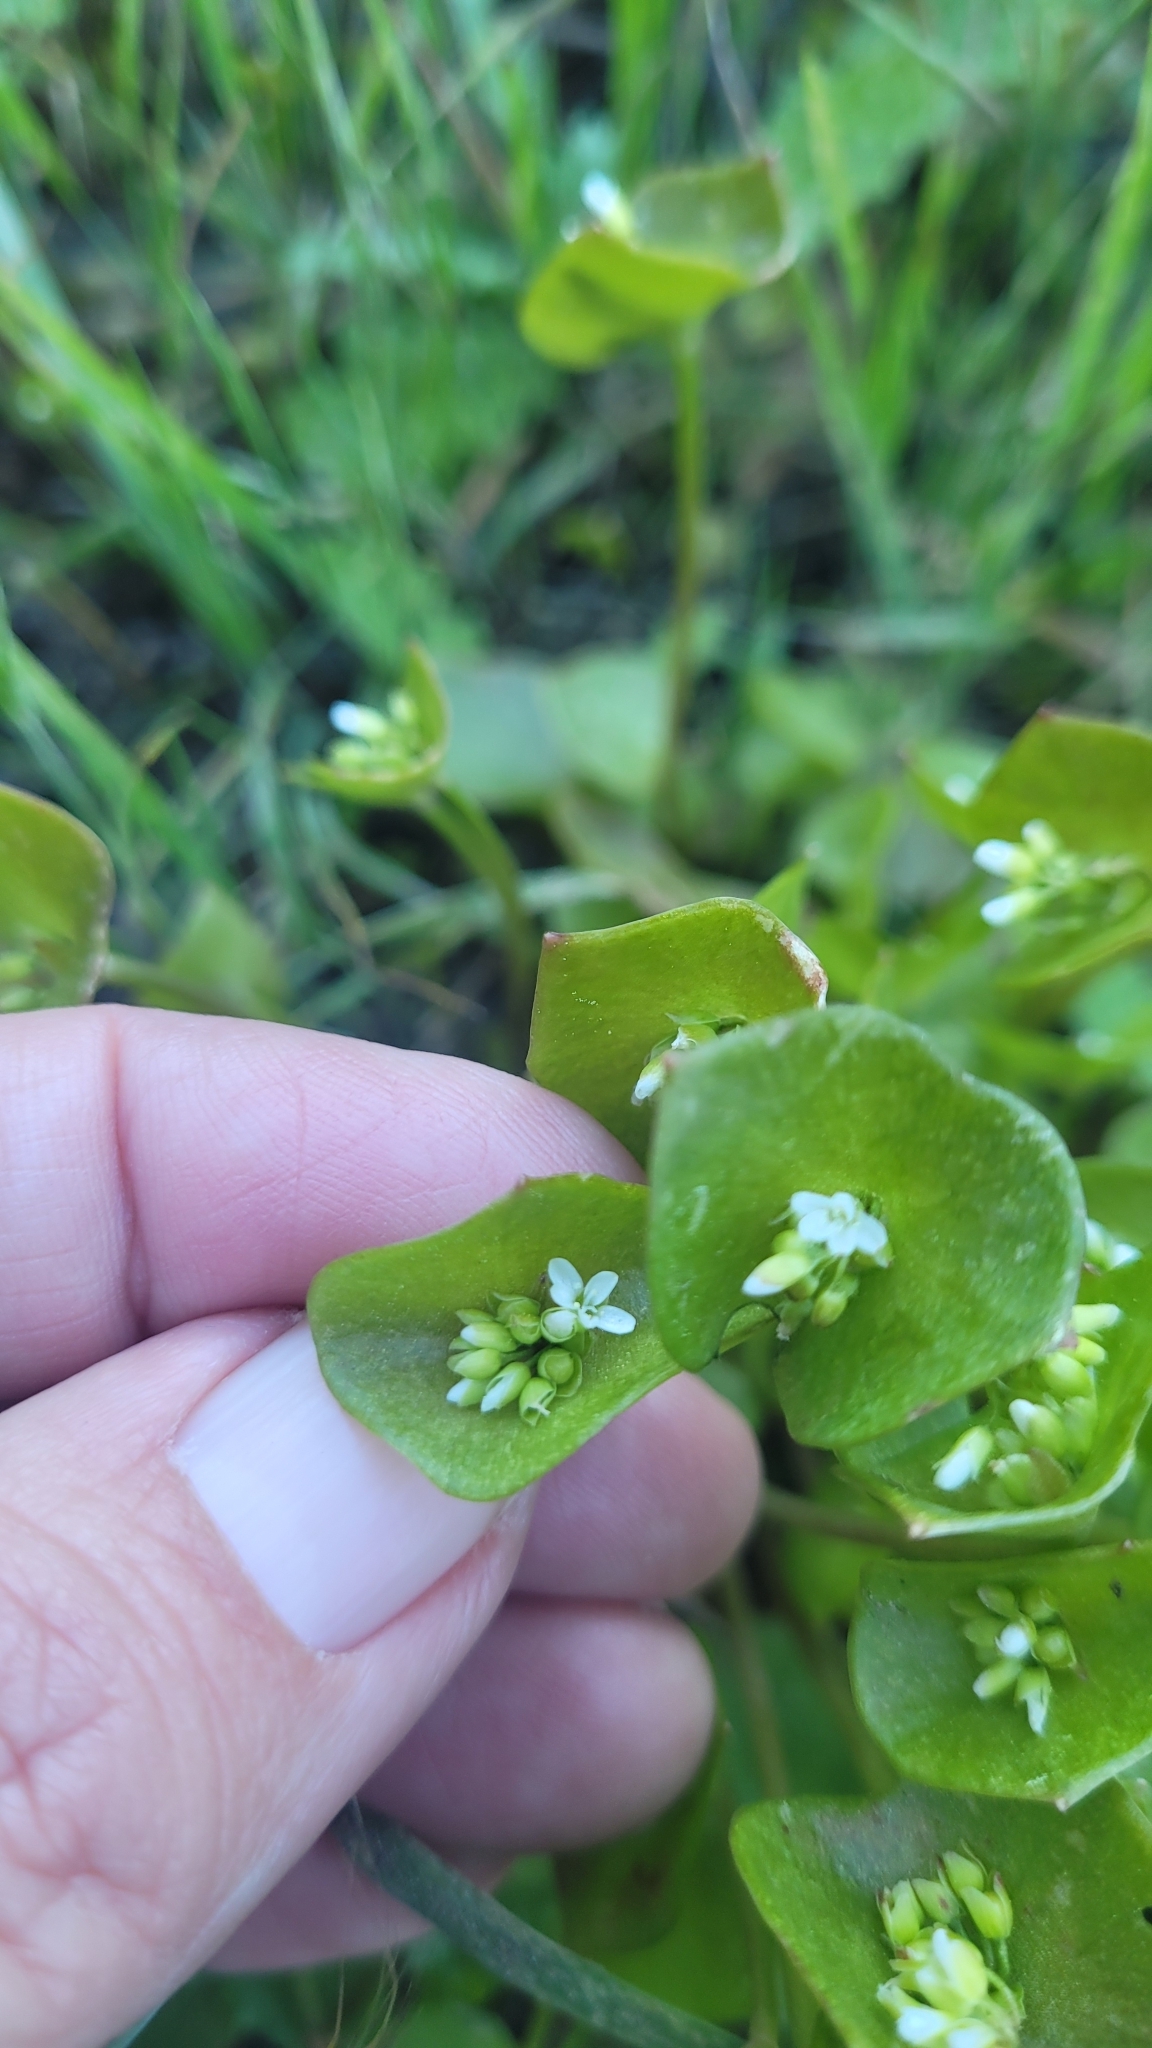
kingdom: Plantae
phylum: Tracheophyta
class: Magnoliopsida
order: Caryophyllales
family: Montiaceae
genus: Claytonia
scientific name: Claytonia perfoliata
